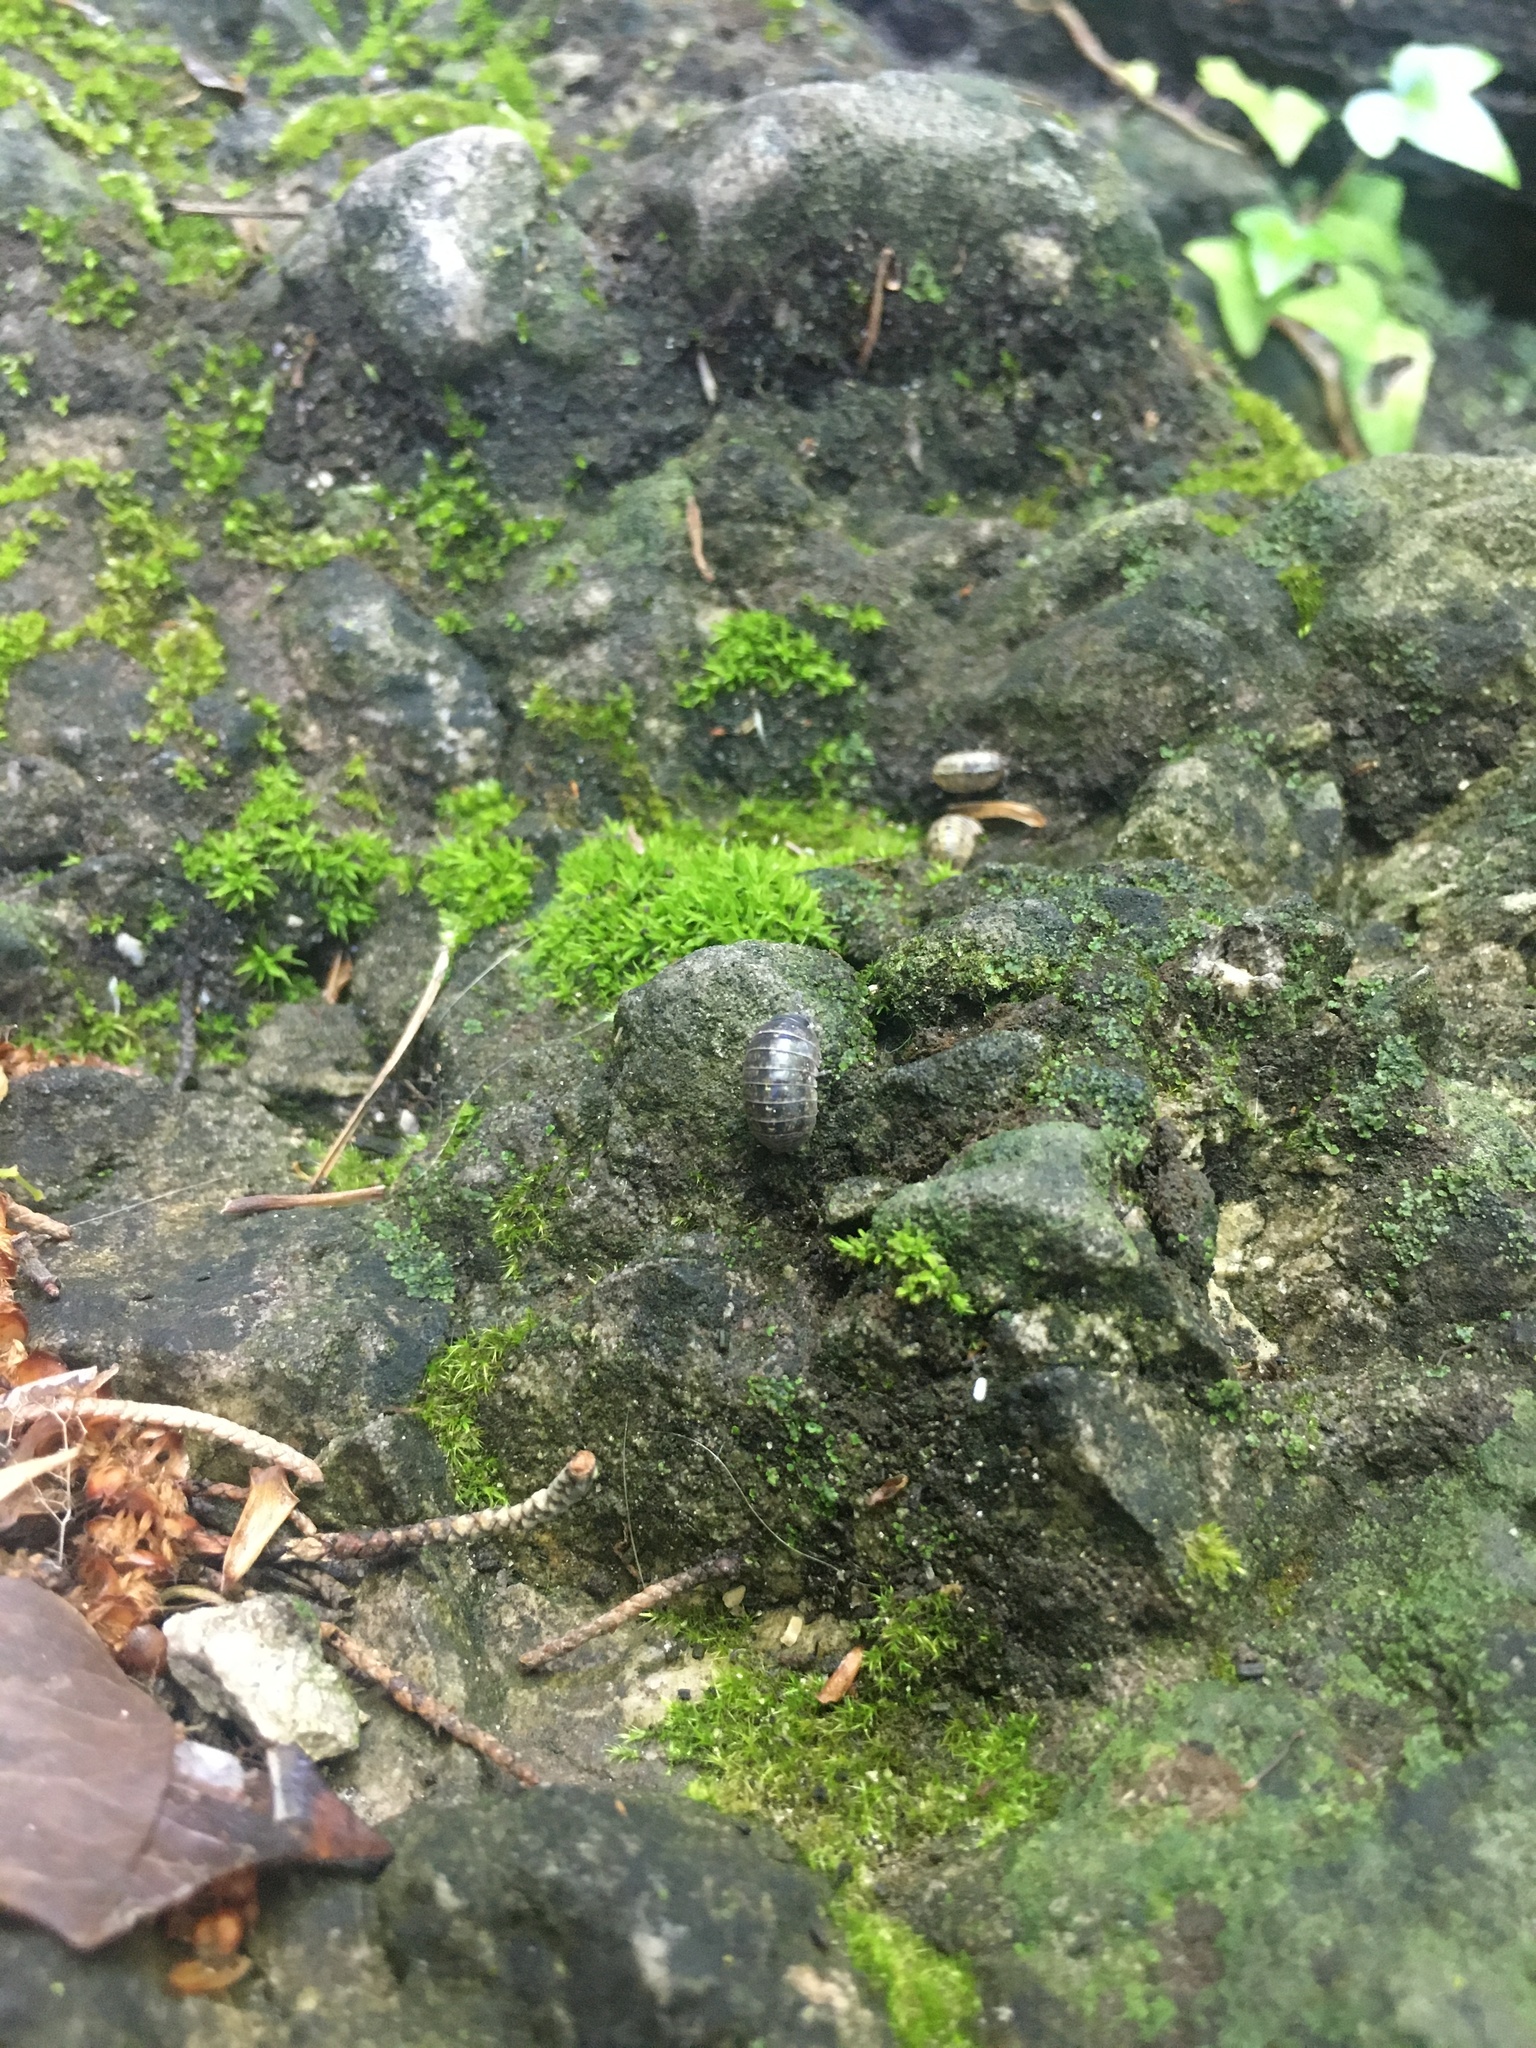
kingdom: Animalia
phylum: Arthropoda
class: Malacostraca
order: Isopoda
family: Armadillidiidae
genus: Armadillidium
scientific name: Armadillidium vulgare
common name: Common pill woodlouse
